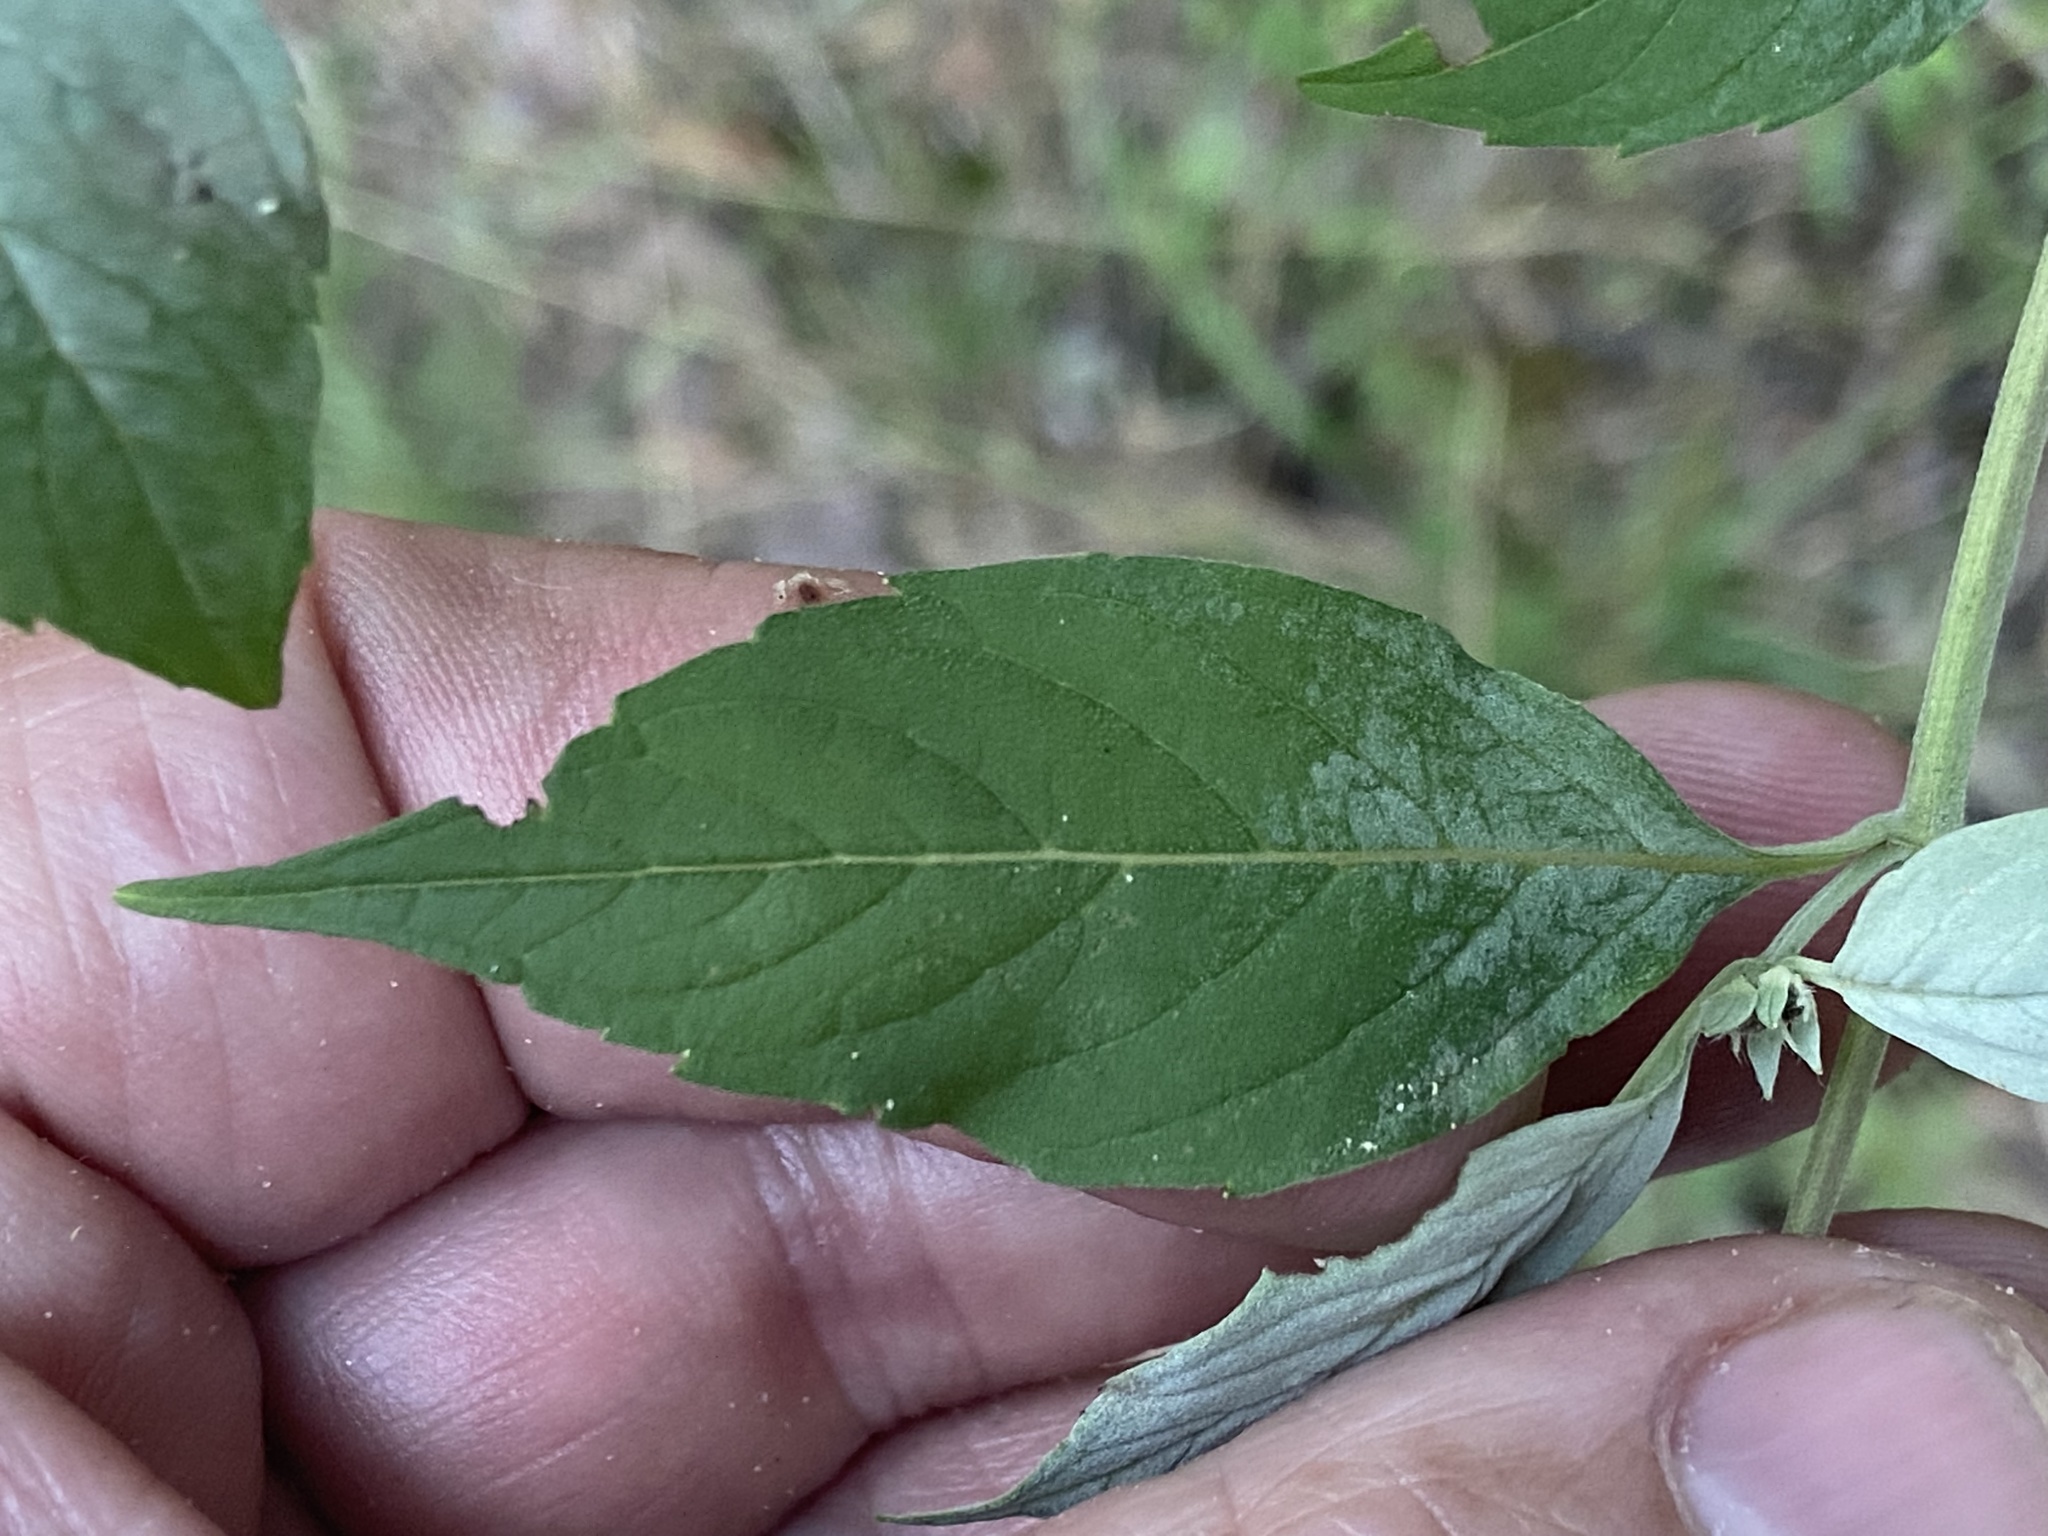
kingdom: Plantae
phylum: Tracheophyta
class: Magnoliopsida
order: Lamiales
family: Lamiaceae
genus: Pycnanthemum
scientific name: Pycnanthemum loomisii
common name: Loomis's mountain-mint
